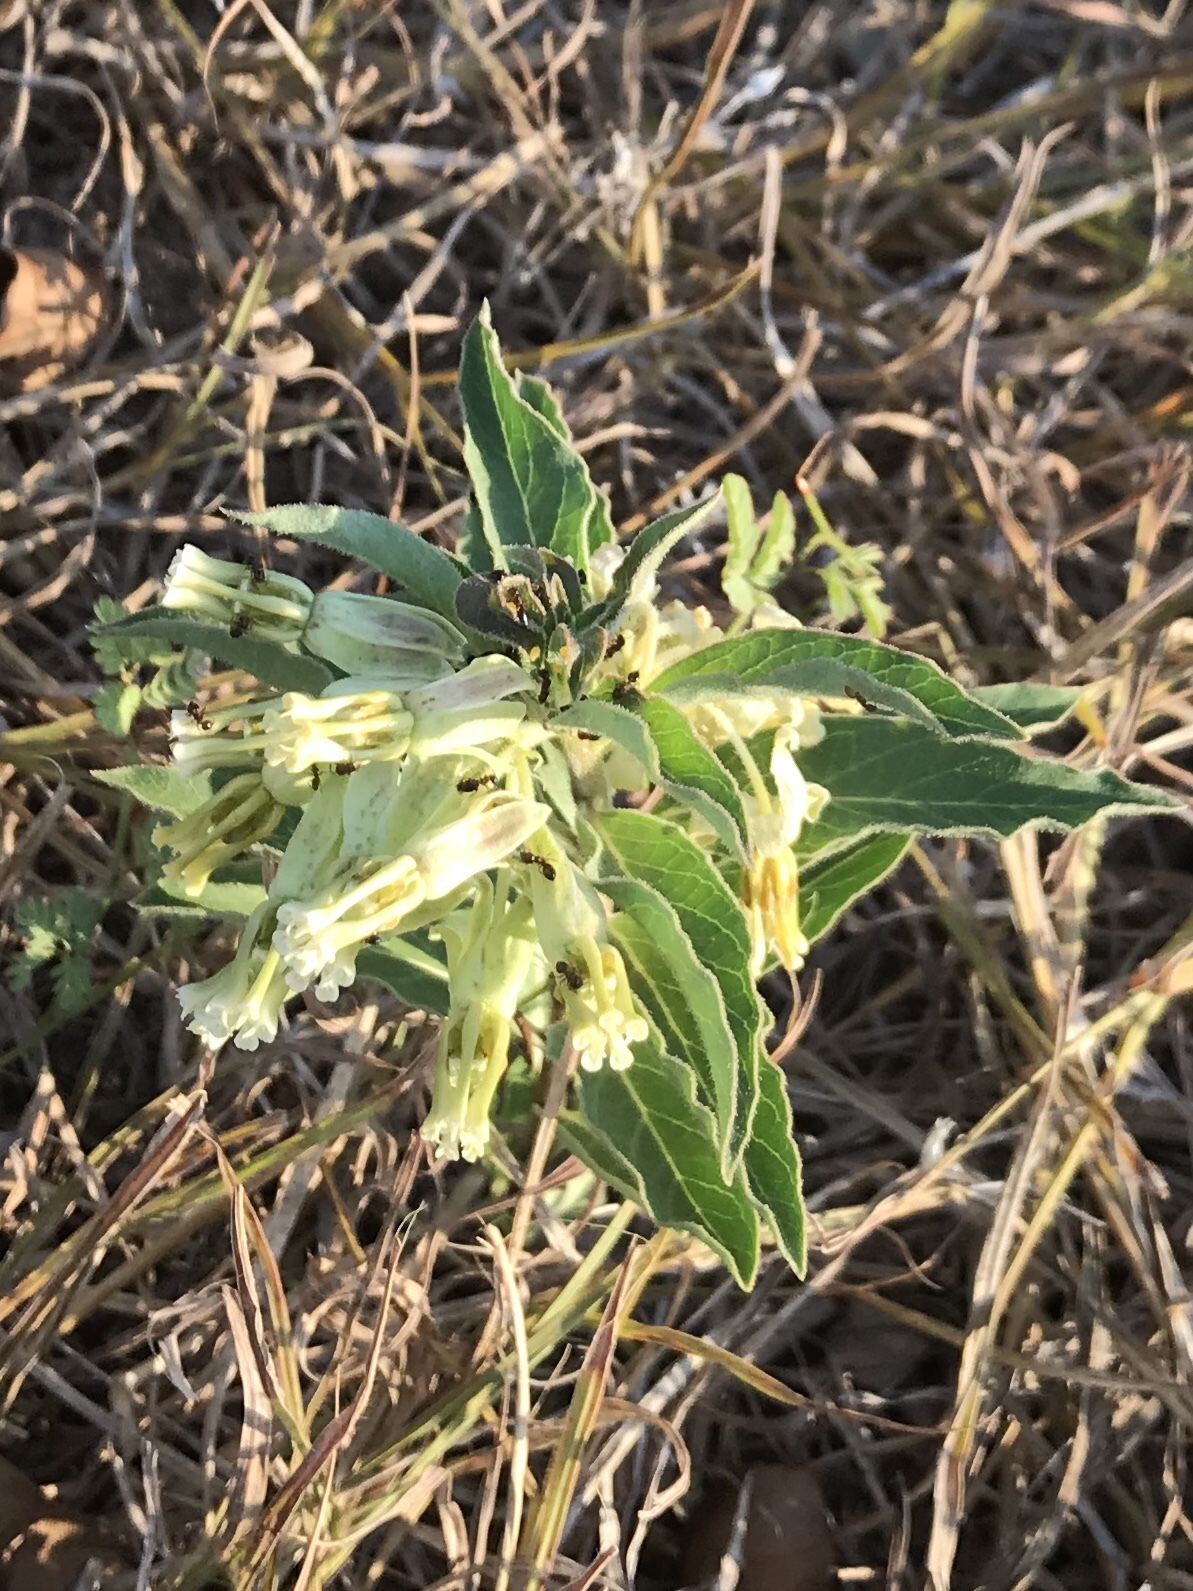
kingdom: Plantae
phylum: Tracheophyta
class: Magnoliopsida
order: Gentianales
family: Apocynaceae
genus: Asclepias
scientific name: Asclepias oenotheroides
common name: Zizotes milkweed
